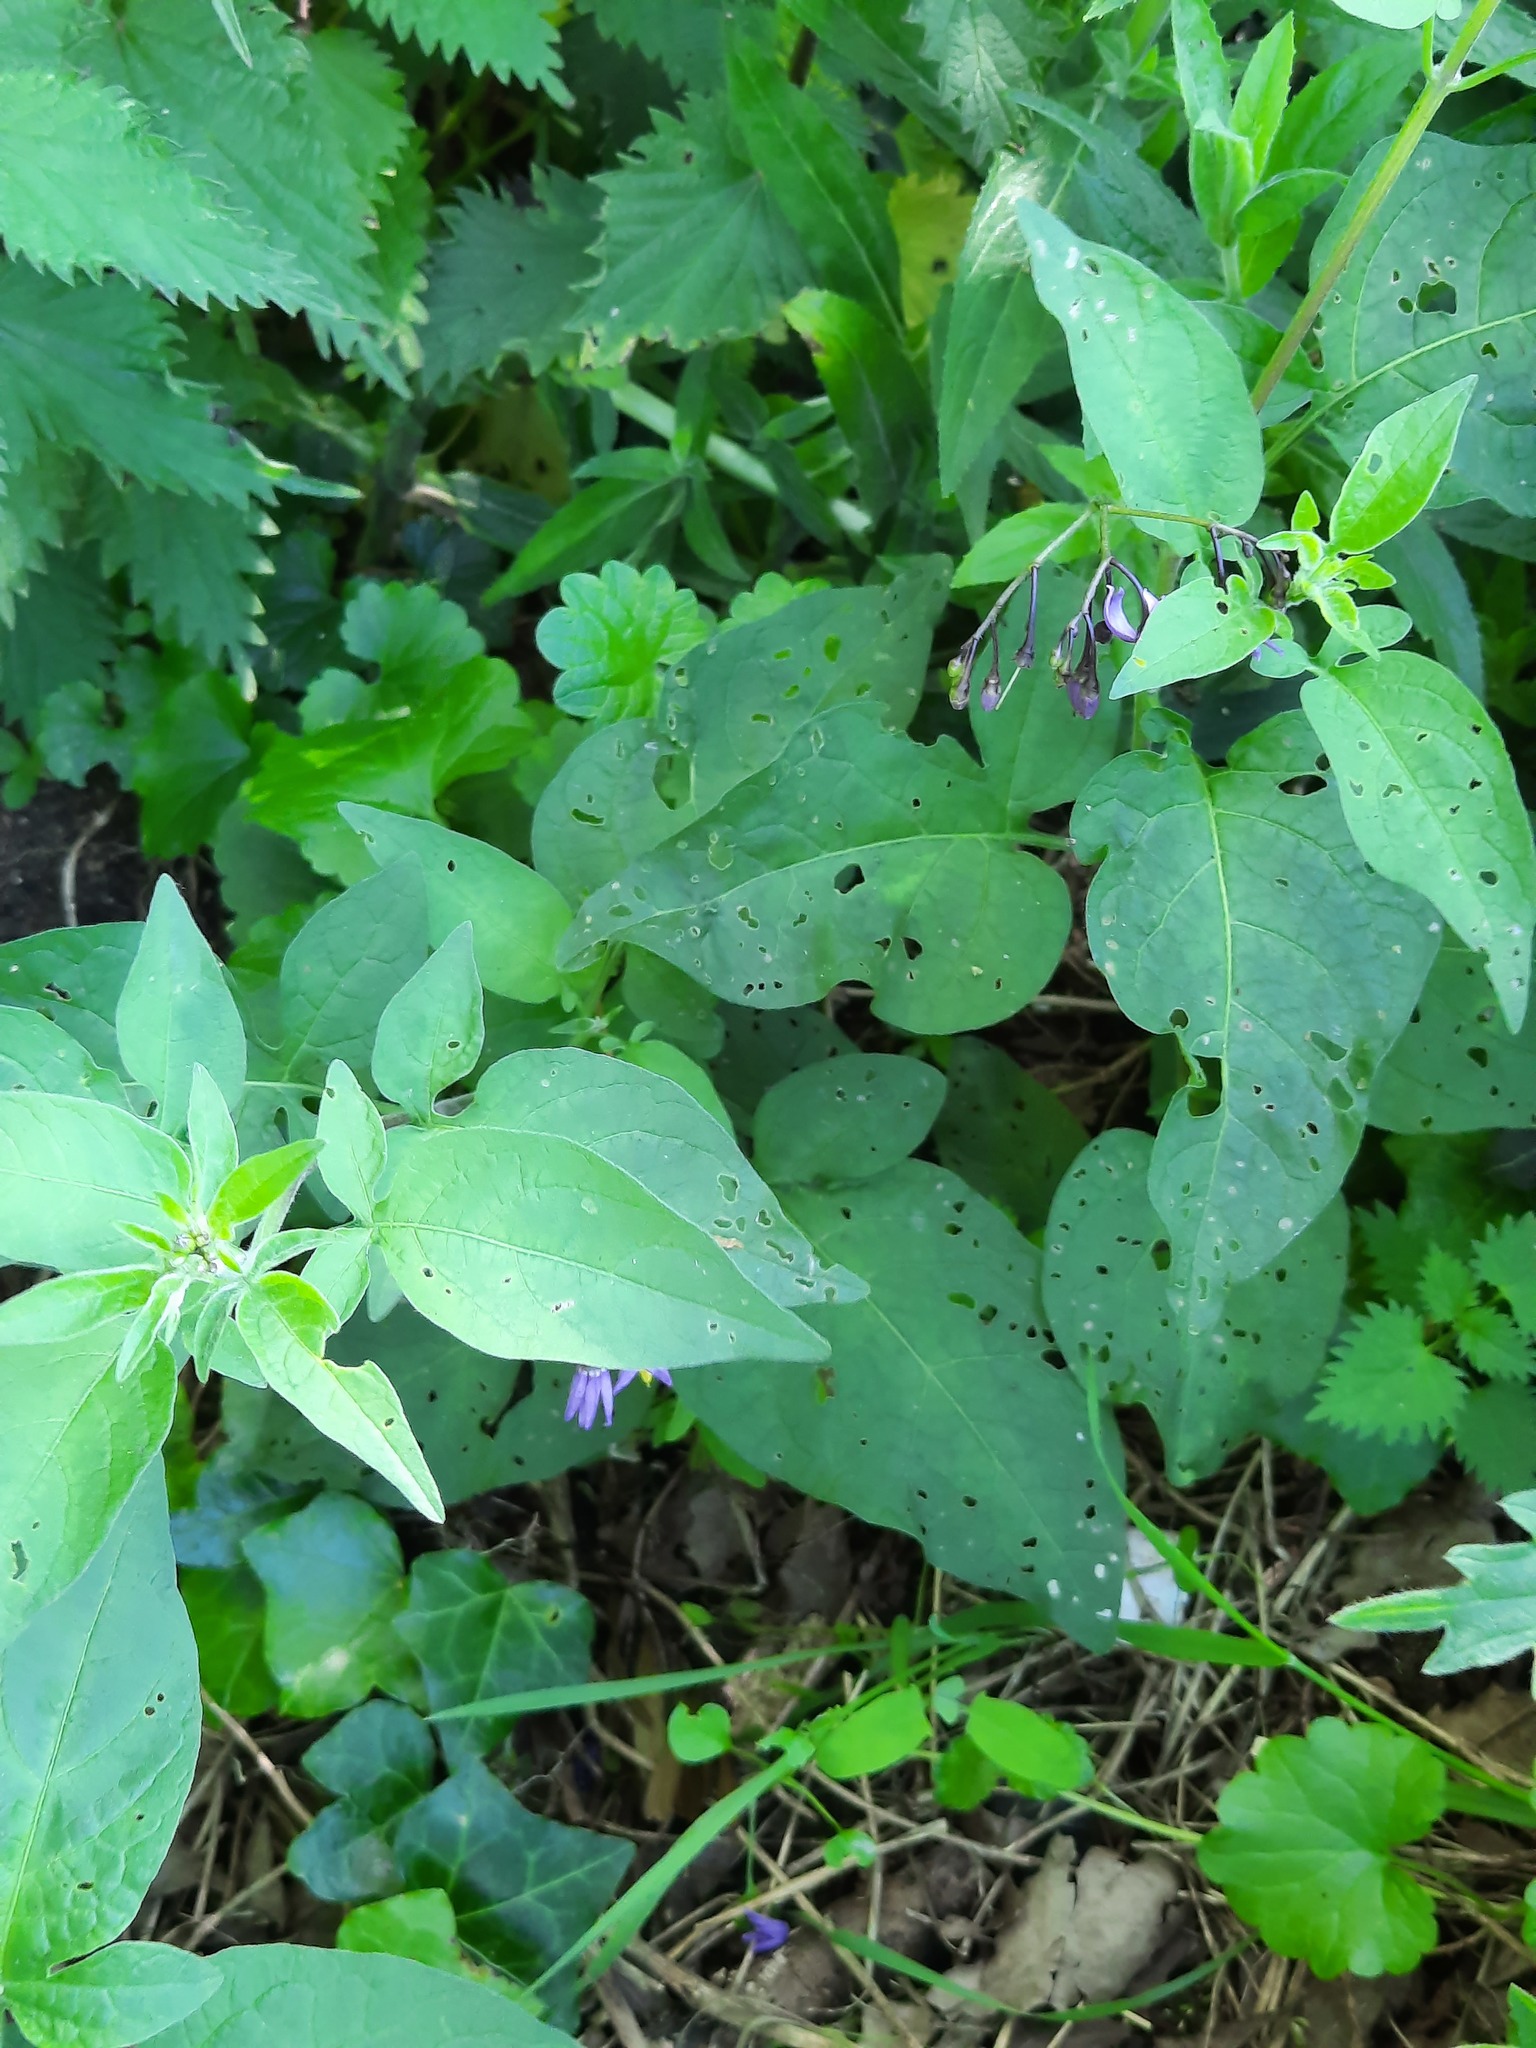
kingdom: Plantae
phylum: Tracheophyta
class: Magnoliopsida
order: Solanales
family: Solanaceae
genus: Solanum
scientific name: Solanum dulcamara
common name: Climbing nightshade
